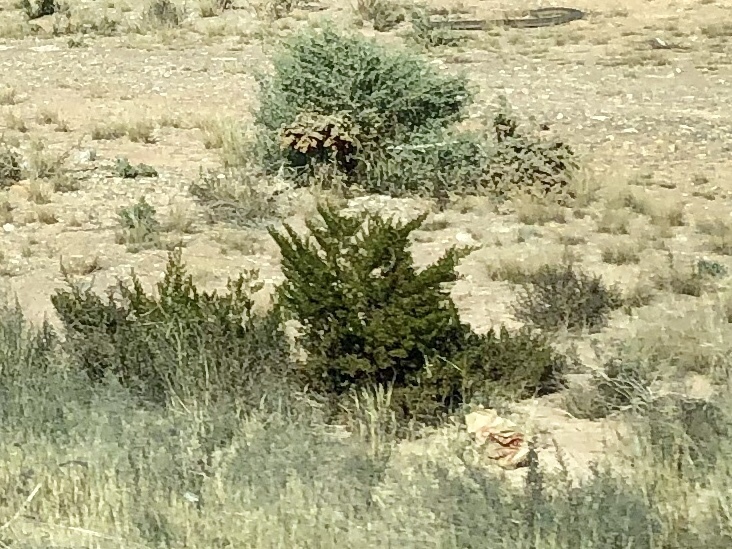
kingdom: Plantae
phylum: Tracheophyta
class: Magnoliopsida
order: Zygophyllales
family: Zygophyllaceae
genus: Larrea
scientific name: Larrea tridentata
